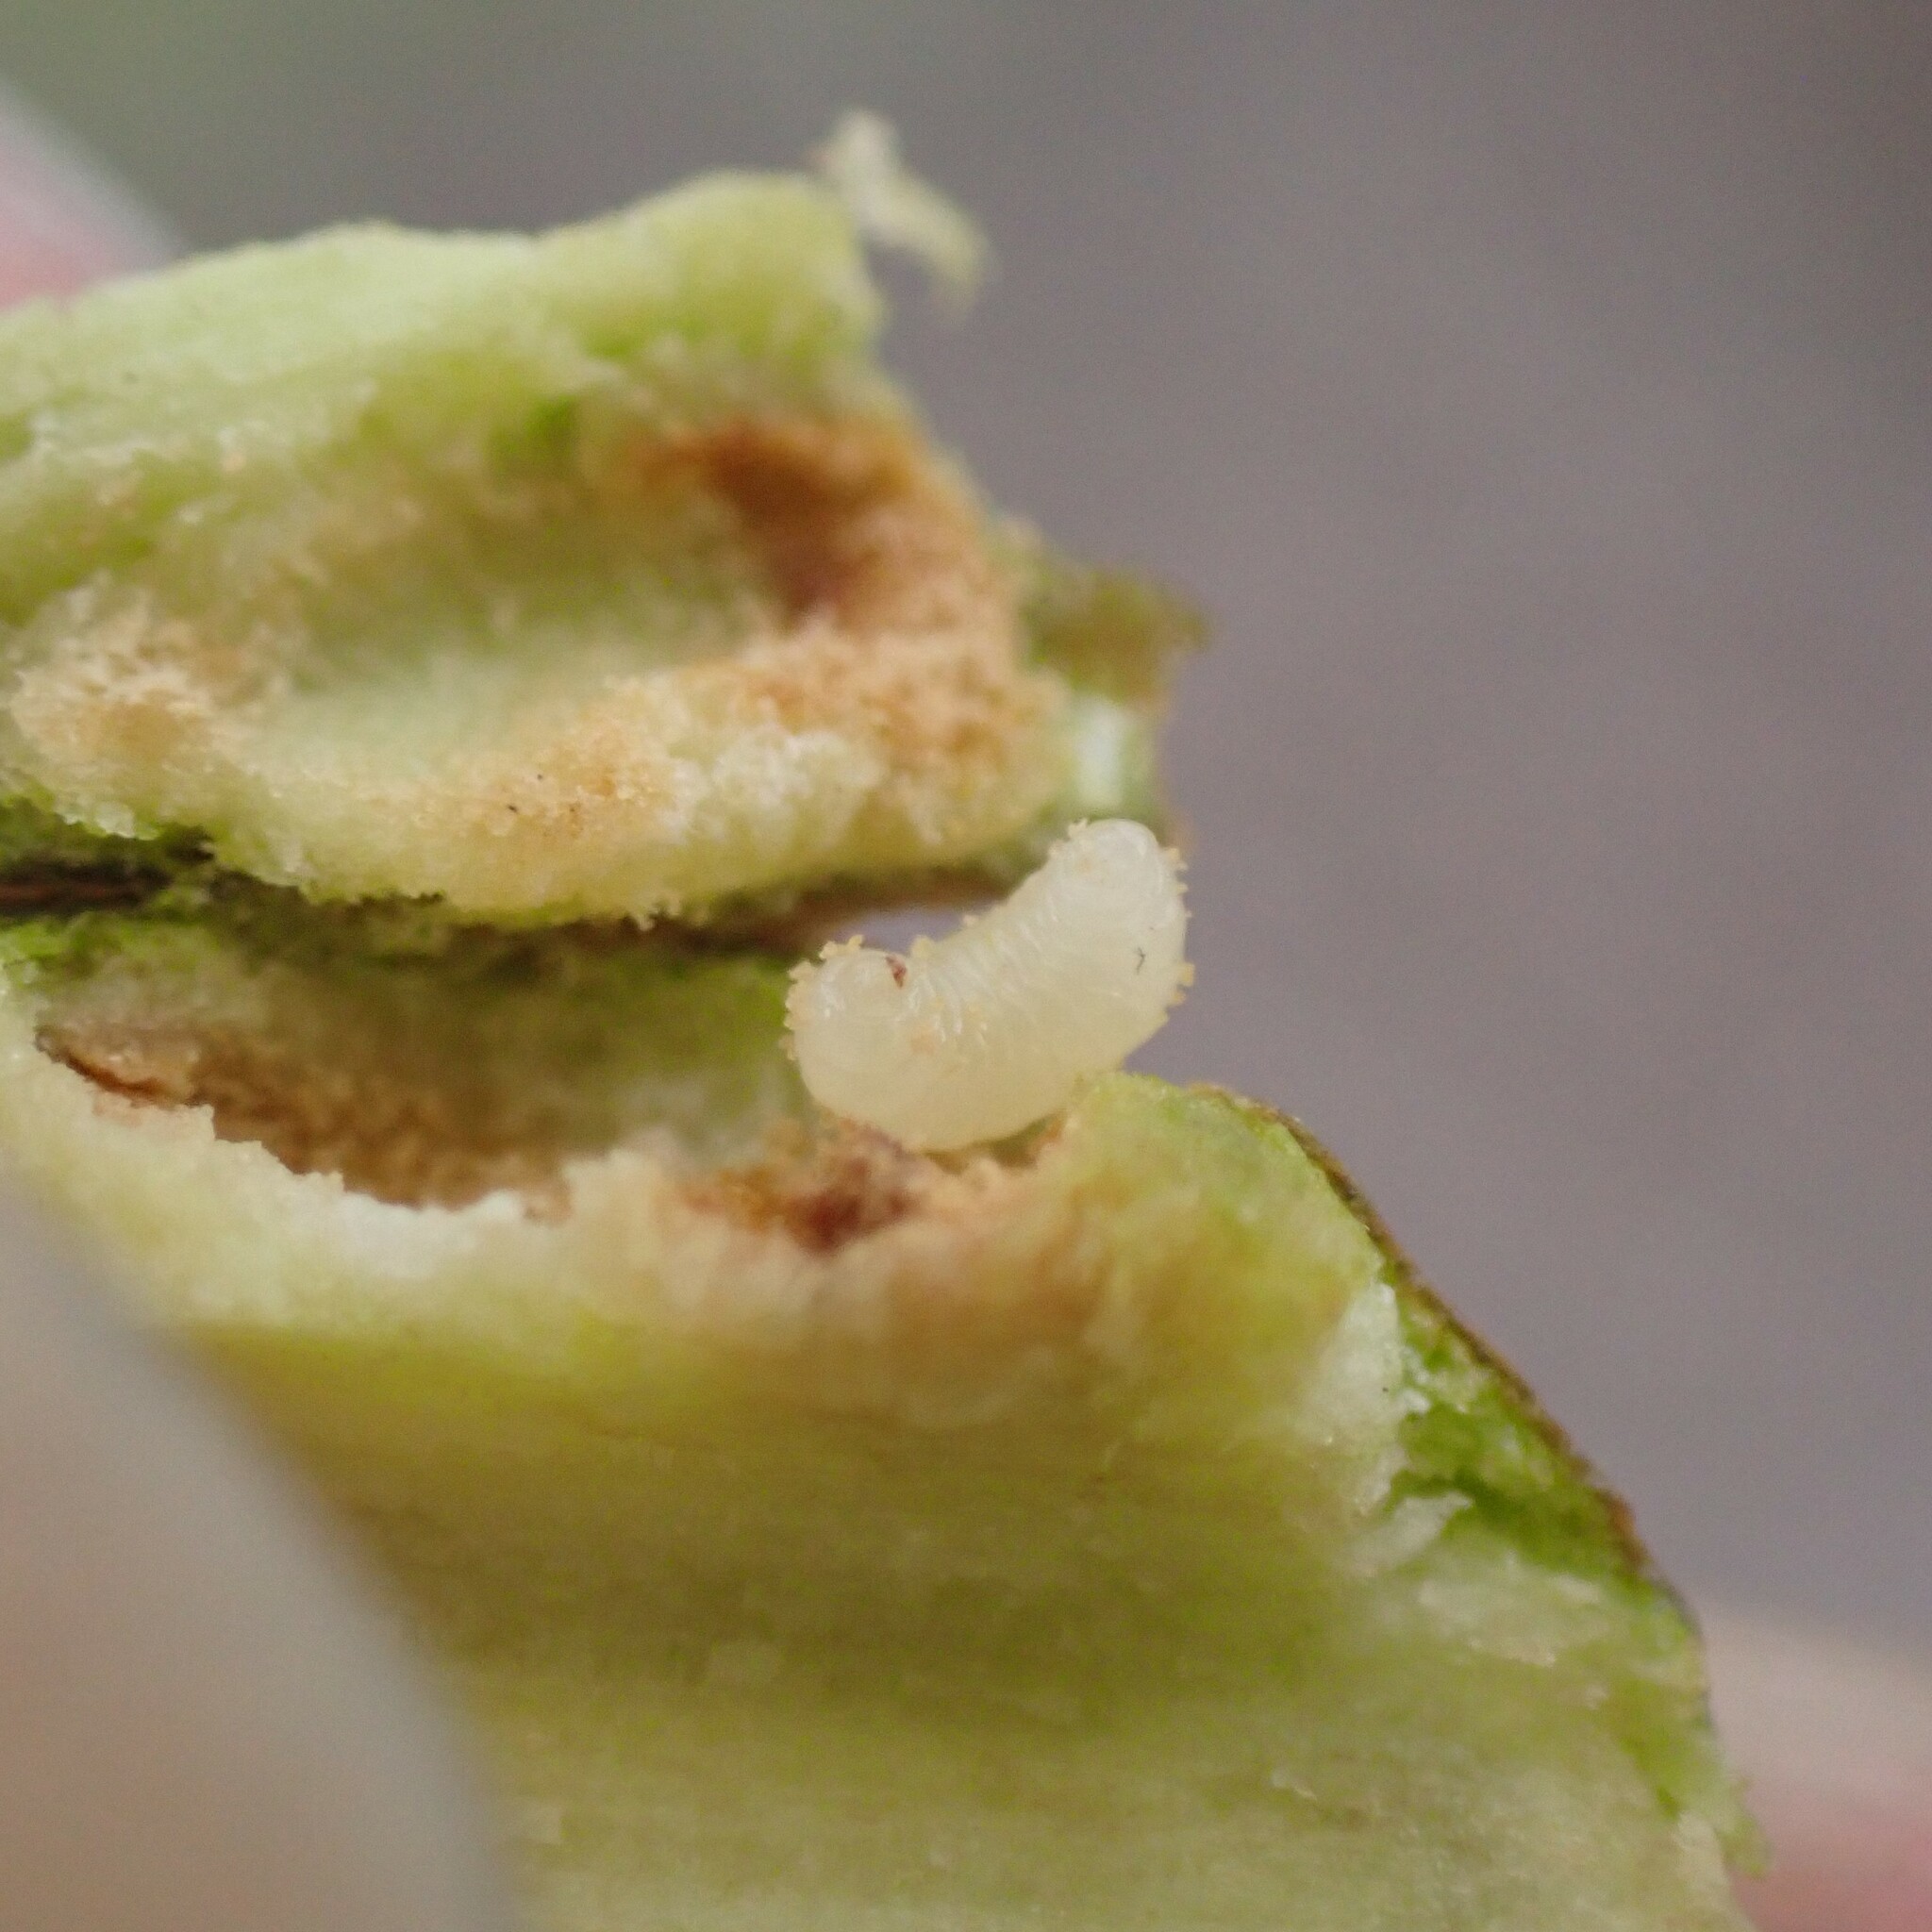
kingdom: Animalia
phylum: Arthropoda
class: Insecta
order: Diptera
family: Agromyzidae
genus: Euhexomyza
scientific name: Euhexomyza schineri
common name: Poplar twiggall fly
